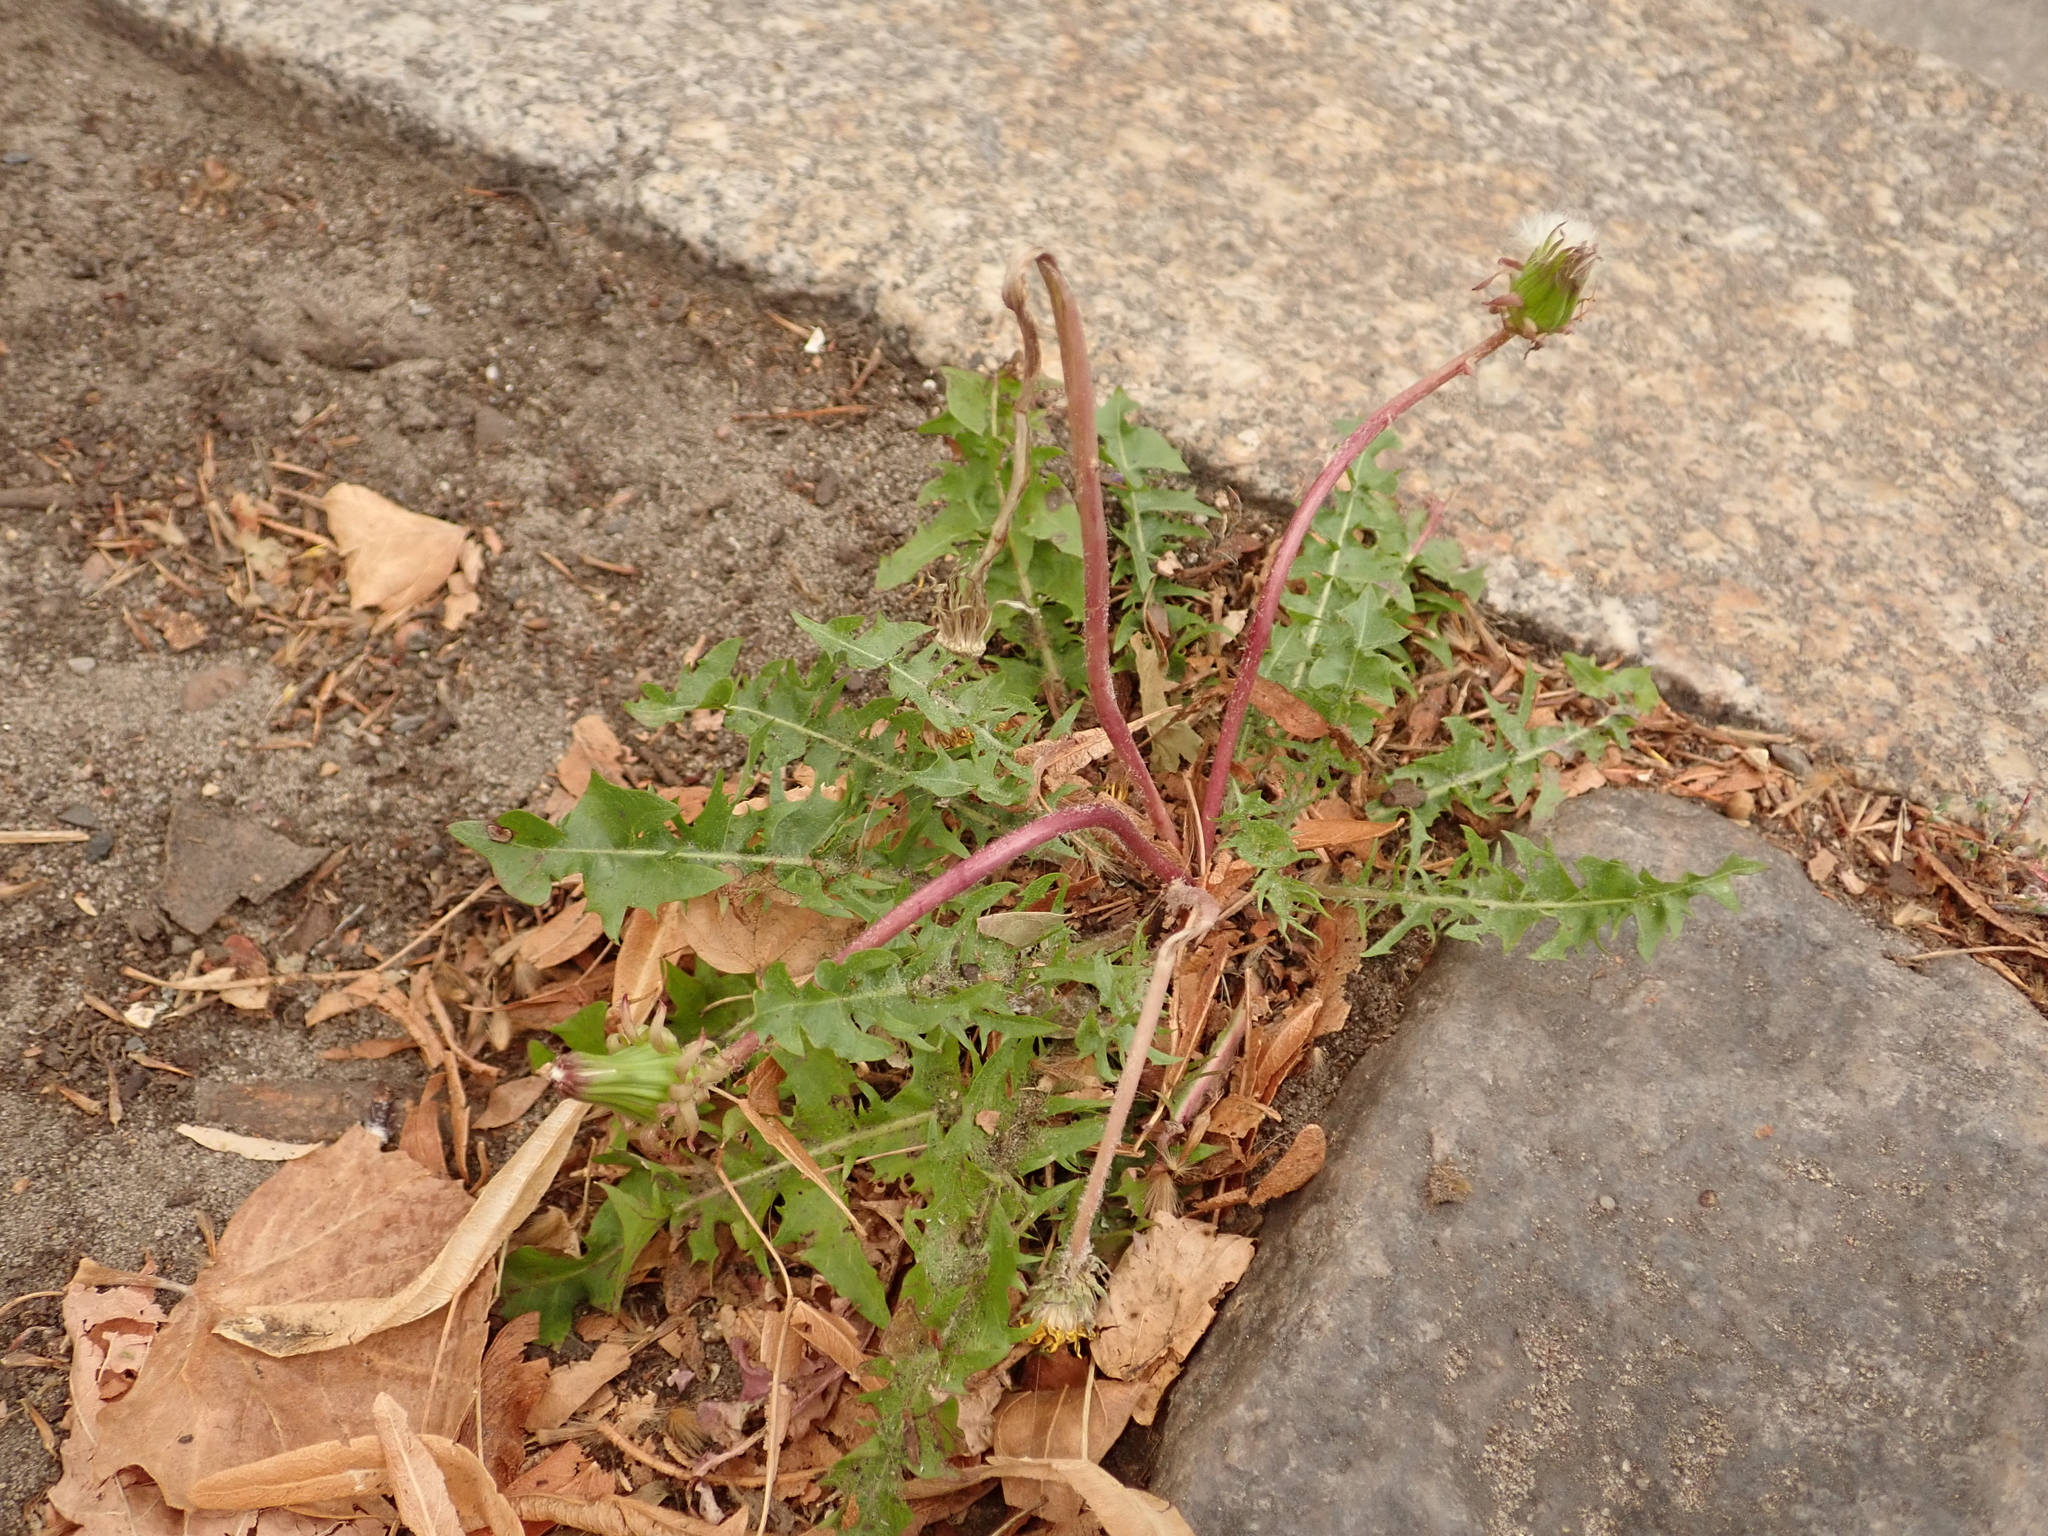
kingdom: Plantae
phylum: Tracheophyta
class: Magnoliopsida
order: Asterales
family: Asteraceae
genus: Taraxacum
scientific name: Taraxacum officinale
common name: Common dandelion
